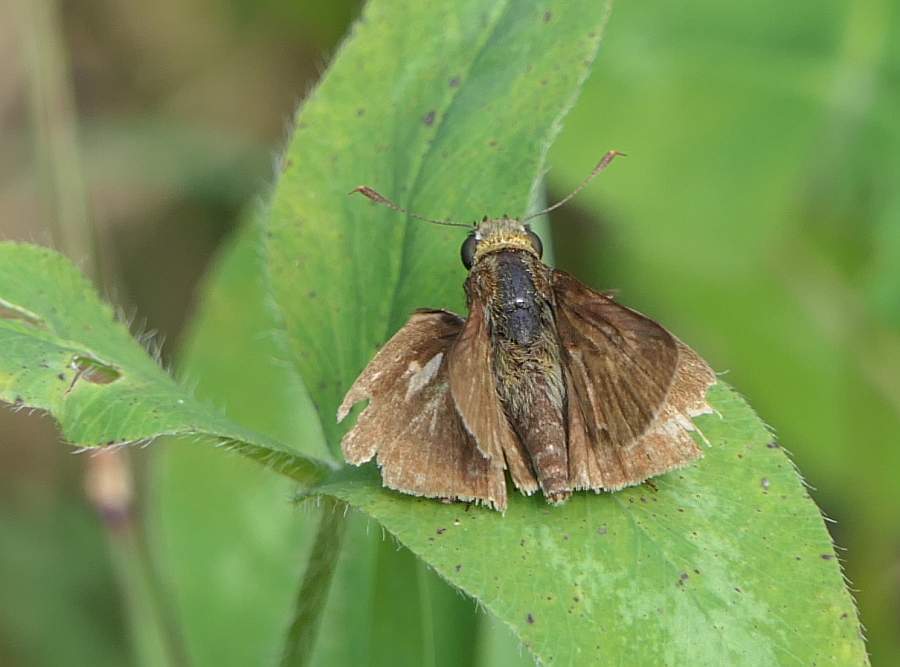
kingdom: Animalia
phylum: Arthropoda
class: Insecta
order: Lepidoptera
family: Hesperiidae
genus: Euphyes
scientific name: Euphyes vestris
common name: Dun skipper
